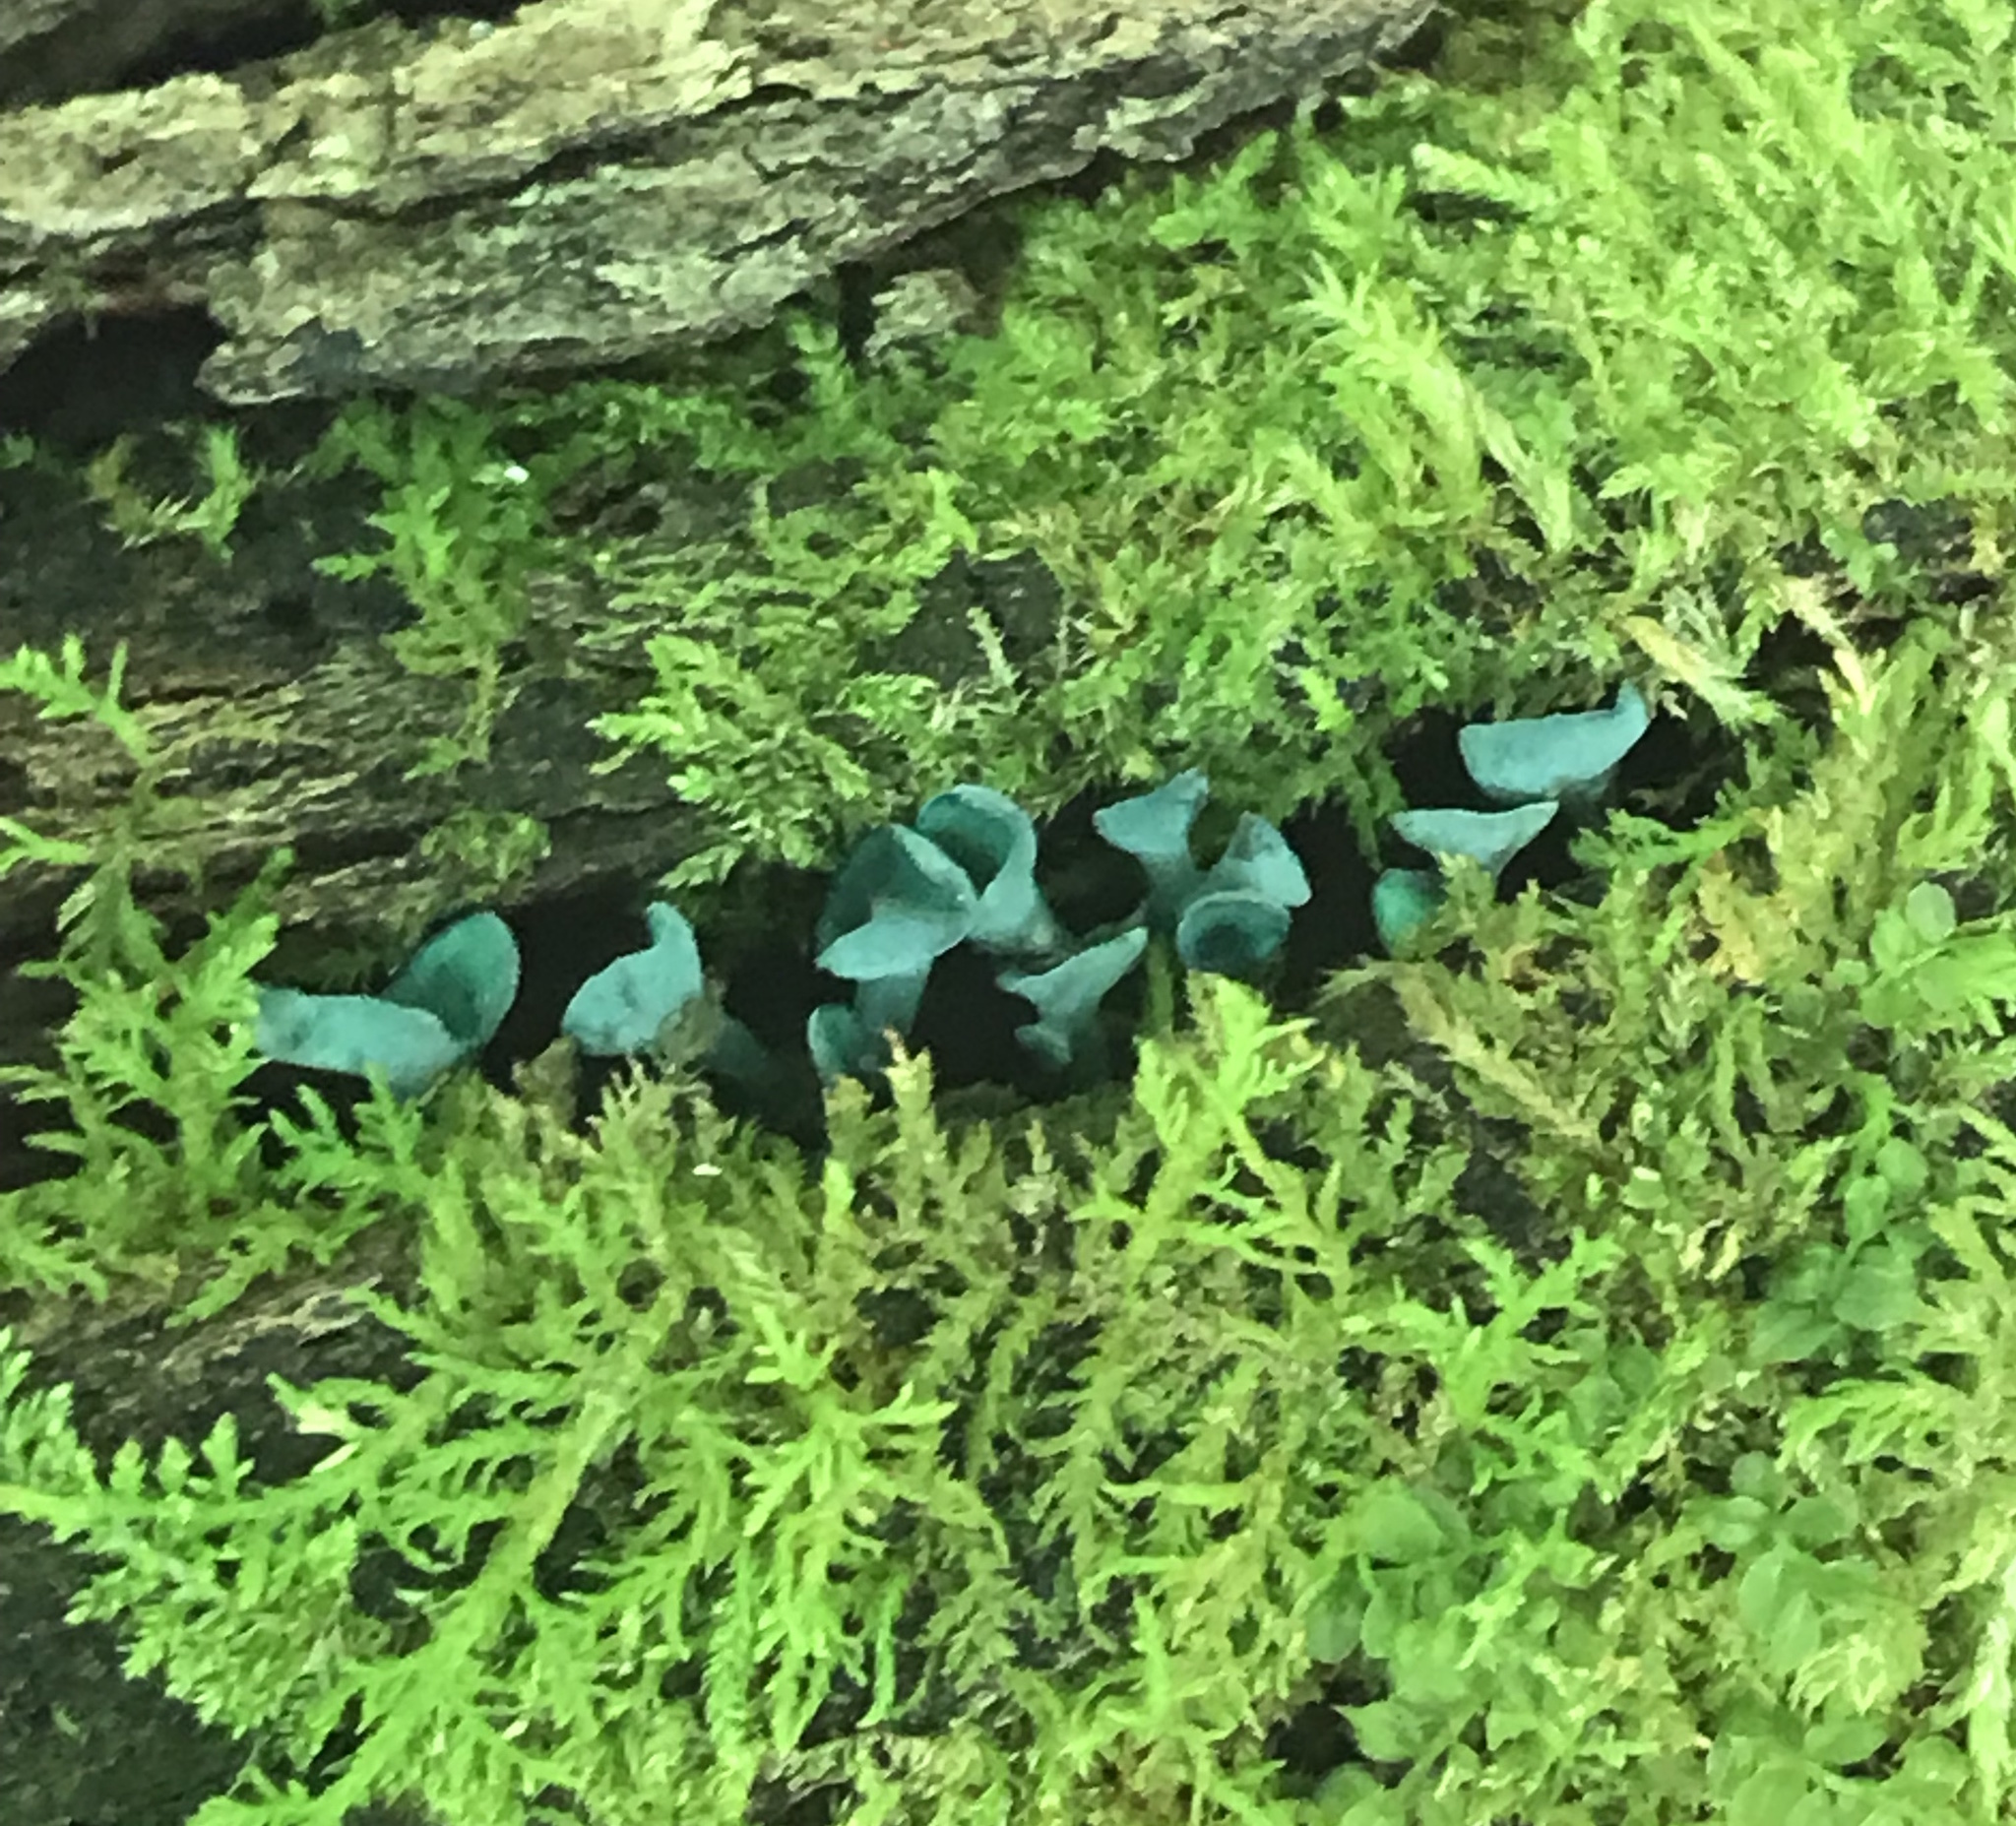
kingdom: Fungi
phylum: Ascomycota
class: Leotiomycetes
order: Helotiales
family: Chlorociboriaceae
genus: Chlorociboria
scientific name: Chlorociboria aeruginascens
